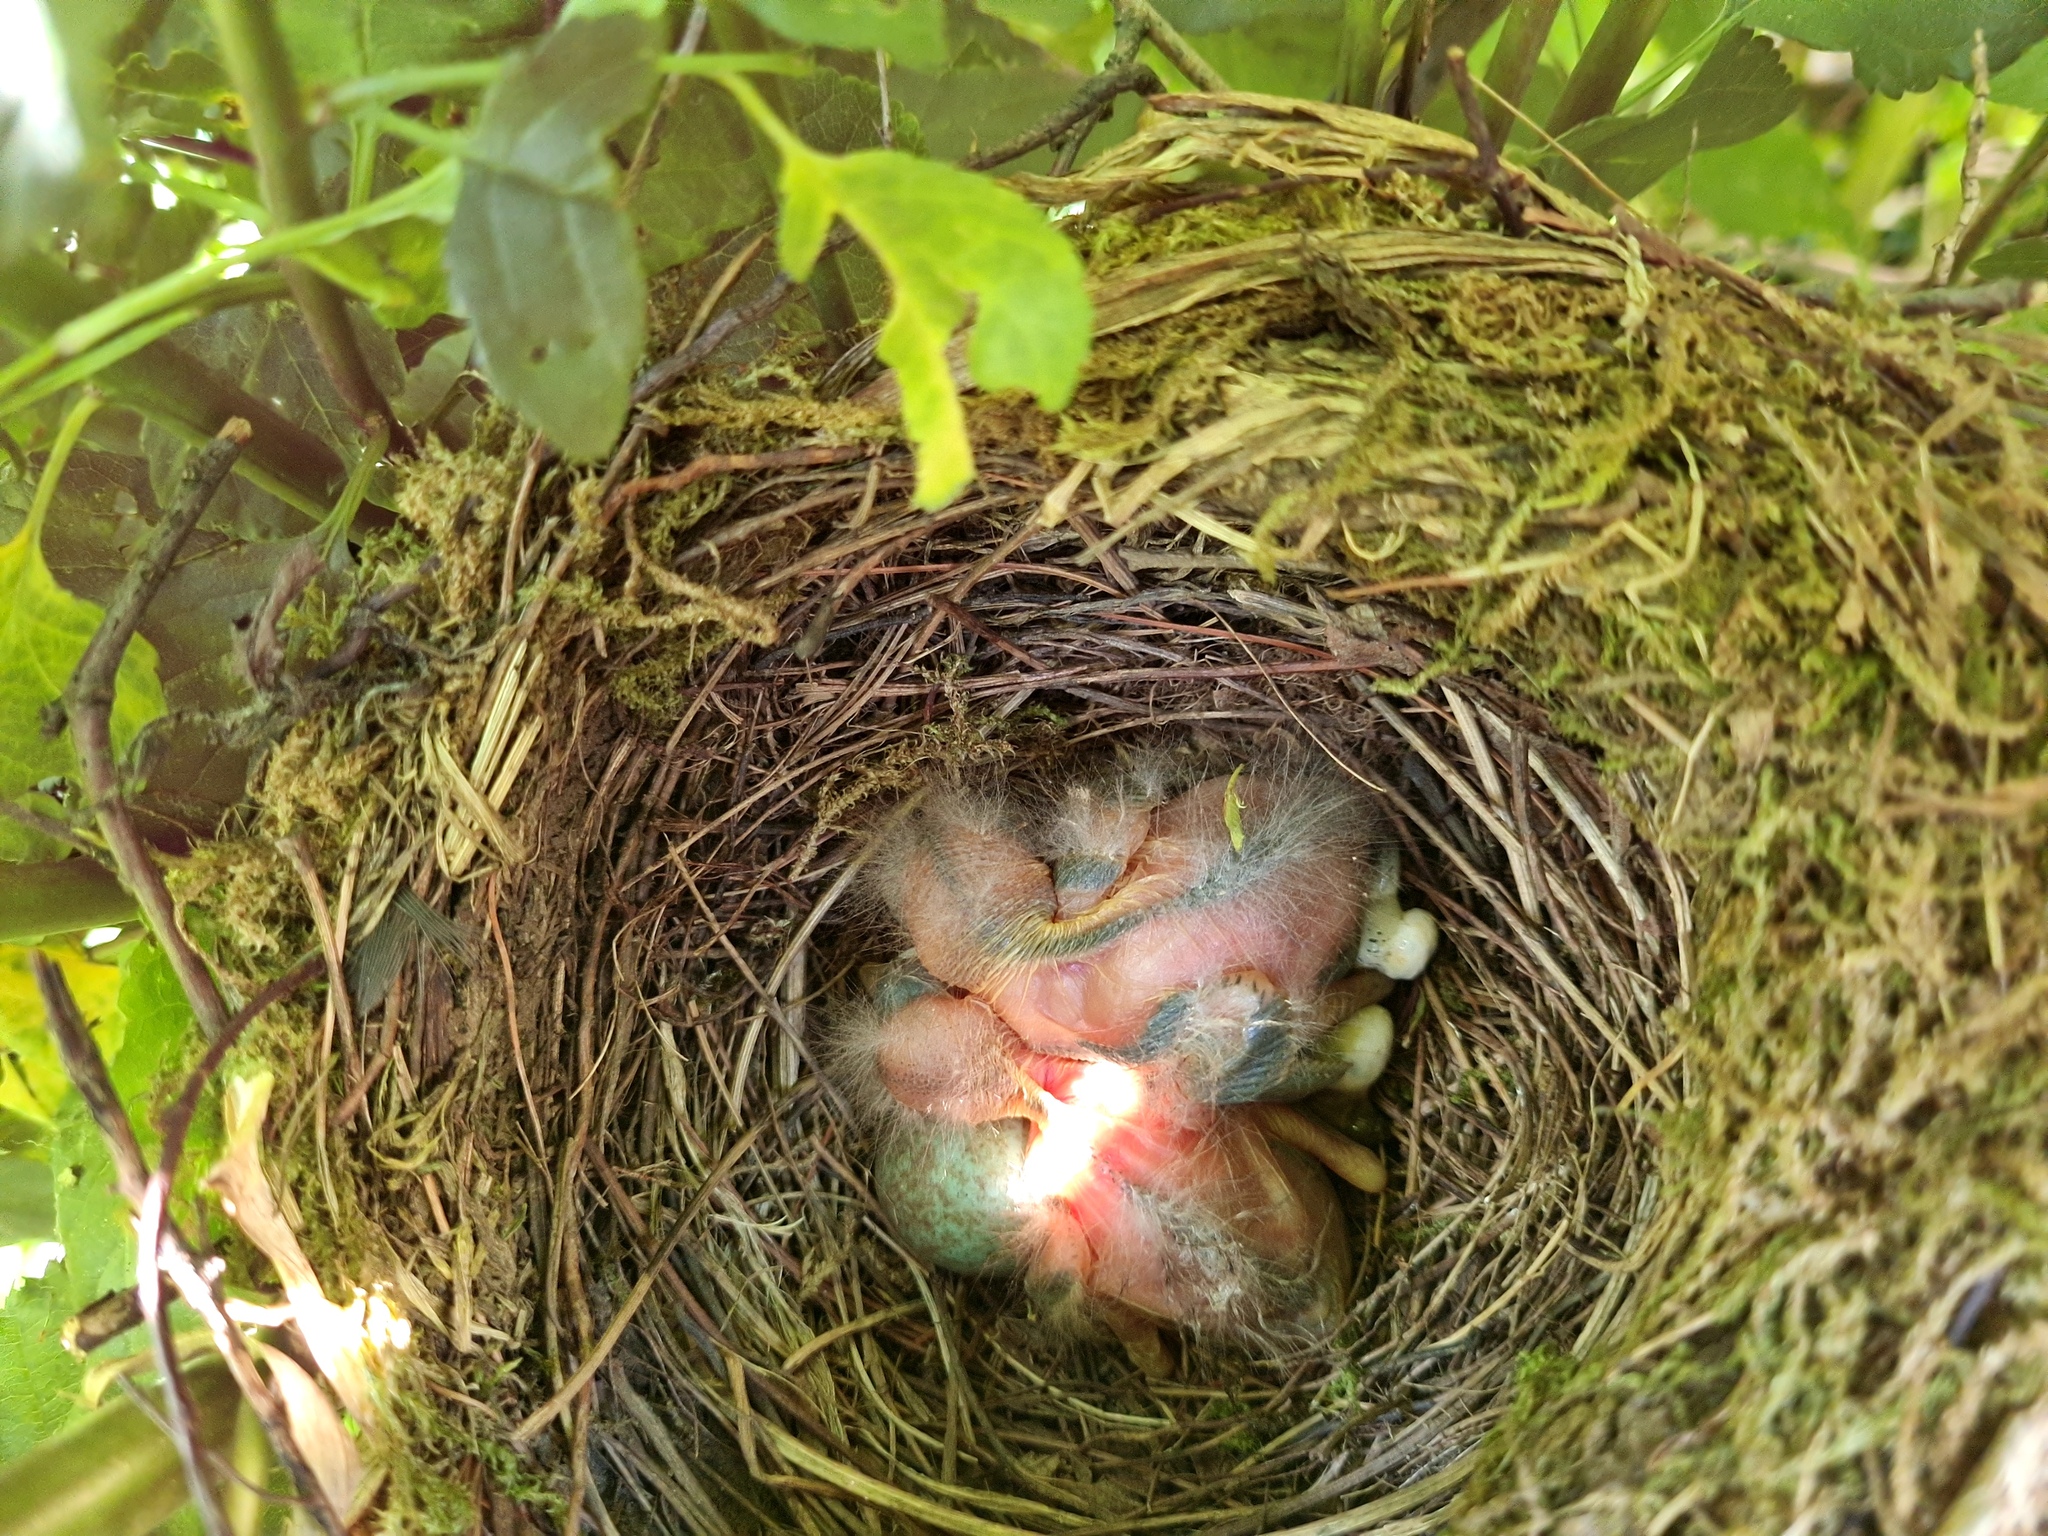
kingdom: Animalia
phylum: Chordata
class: Aves
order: Passeriformes
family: Turdidae
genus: Turdus
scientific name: Turdus merula
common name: Common blackbird
